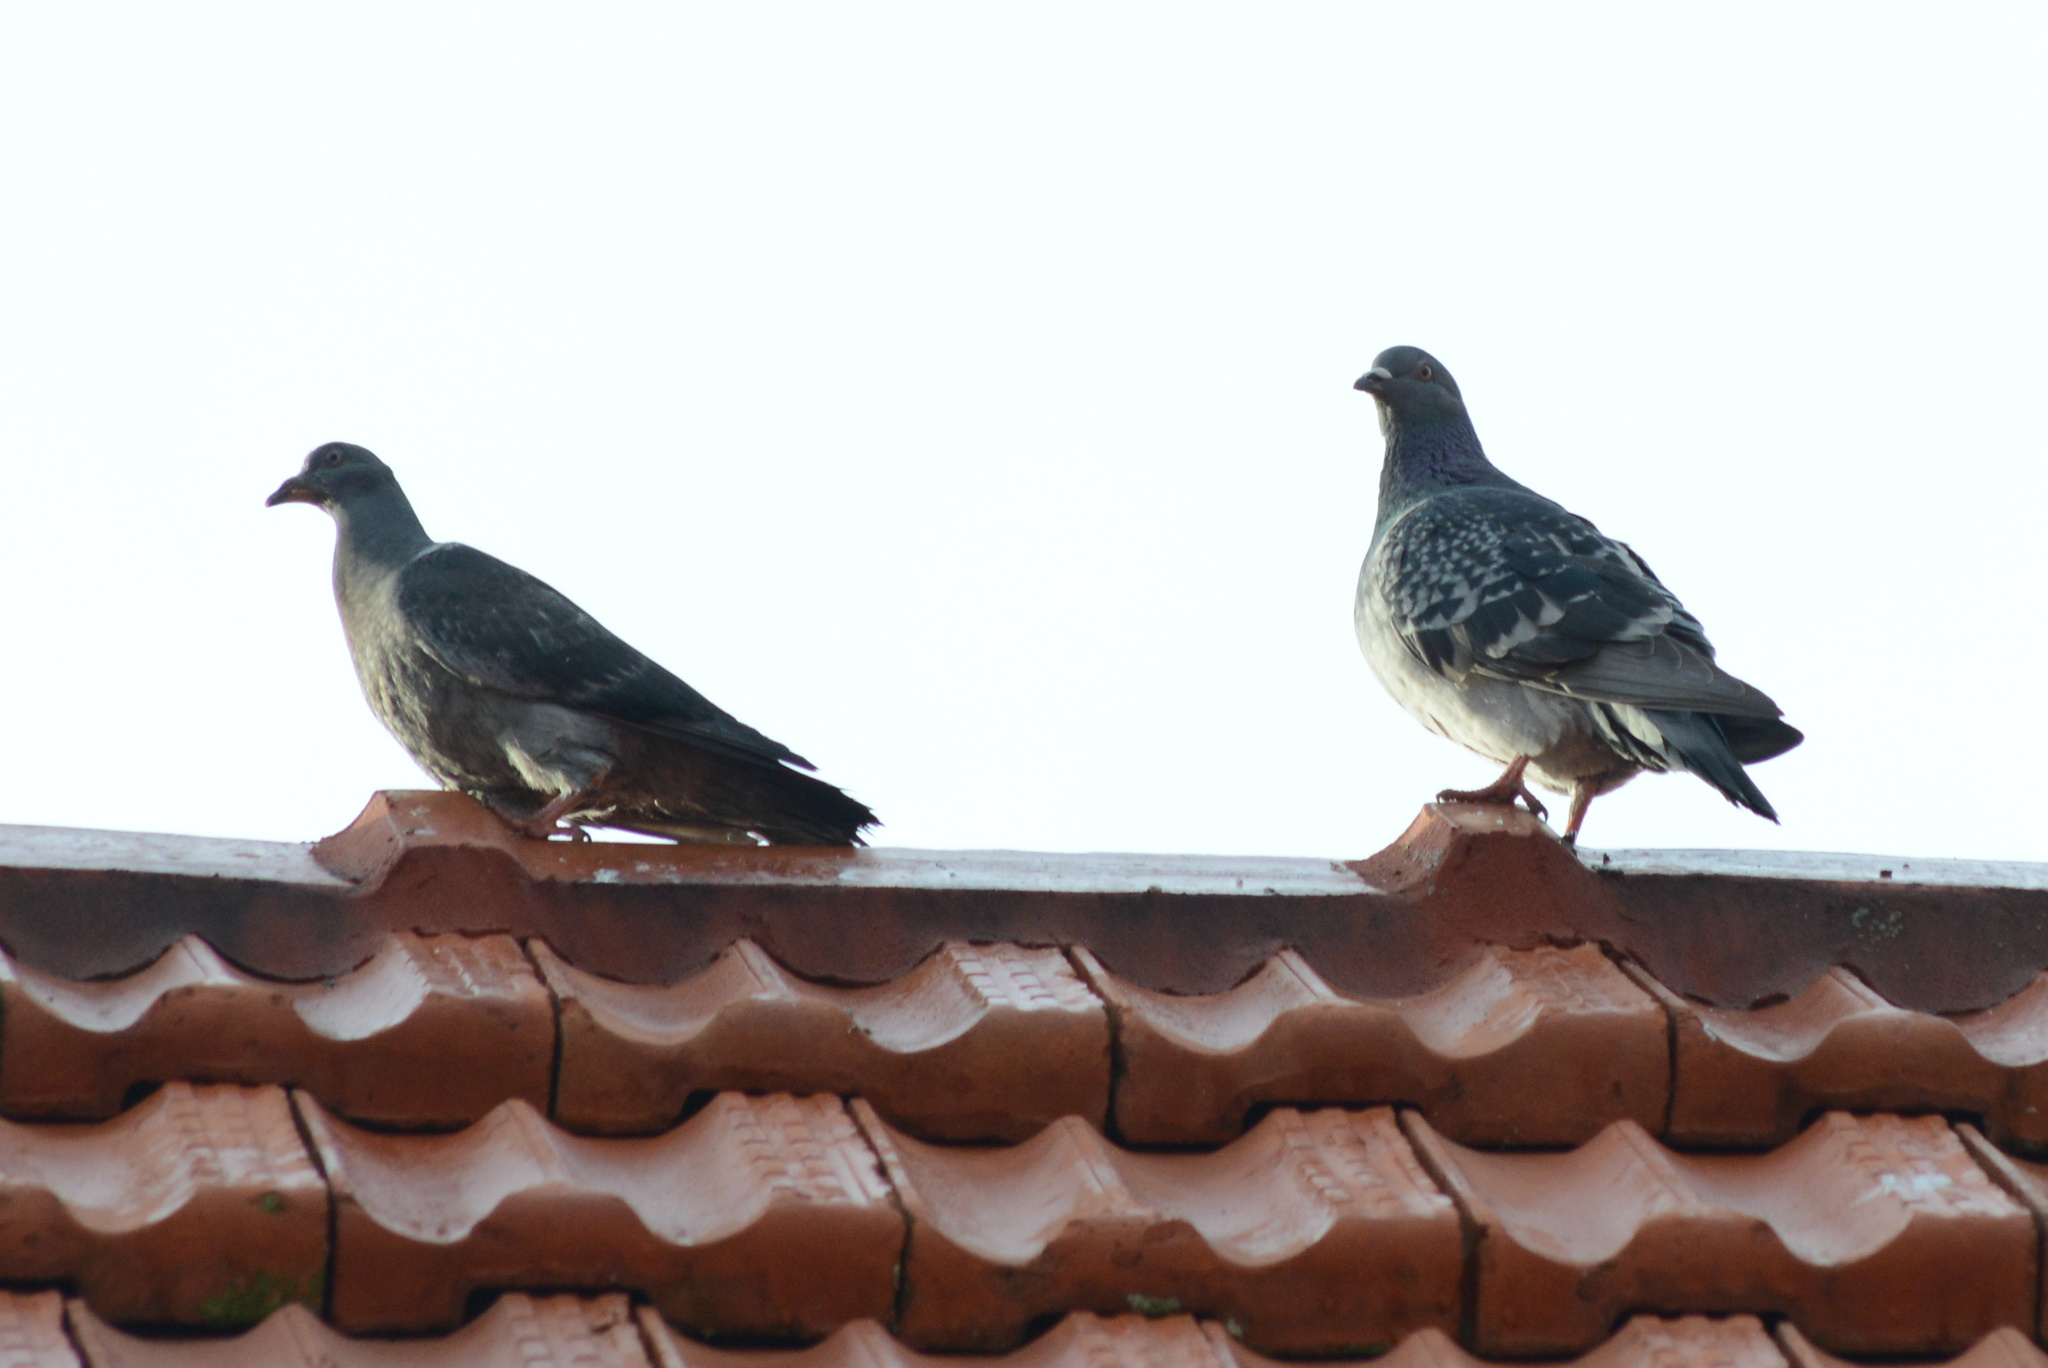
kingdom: Animalia
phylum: Chordata
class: Aves
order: Columbiformes
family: Columbidae
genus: Columba
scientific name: Columba livia
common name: Rock pigeon
